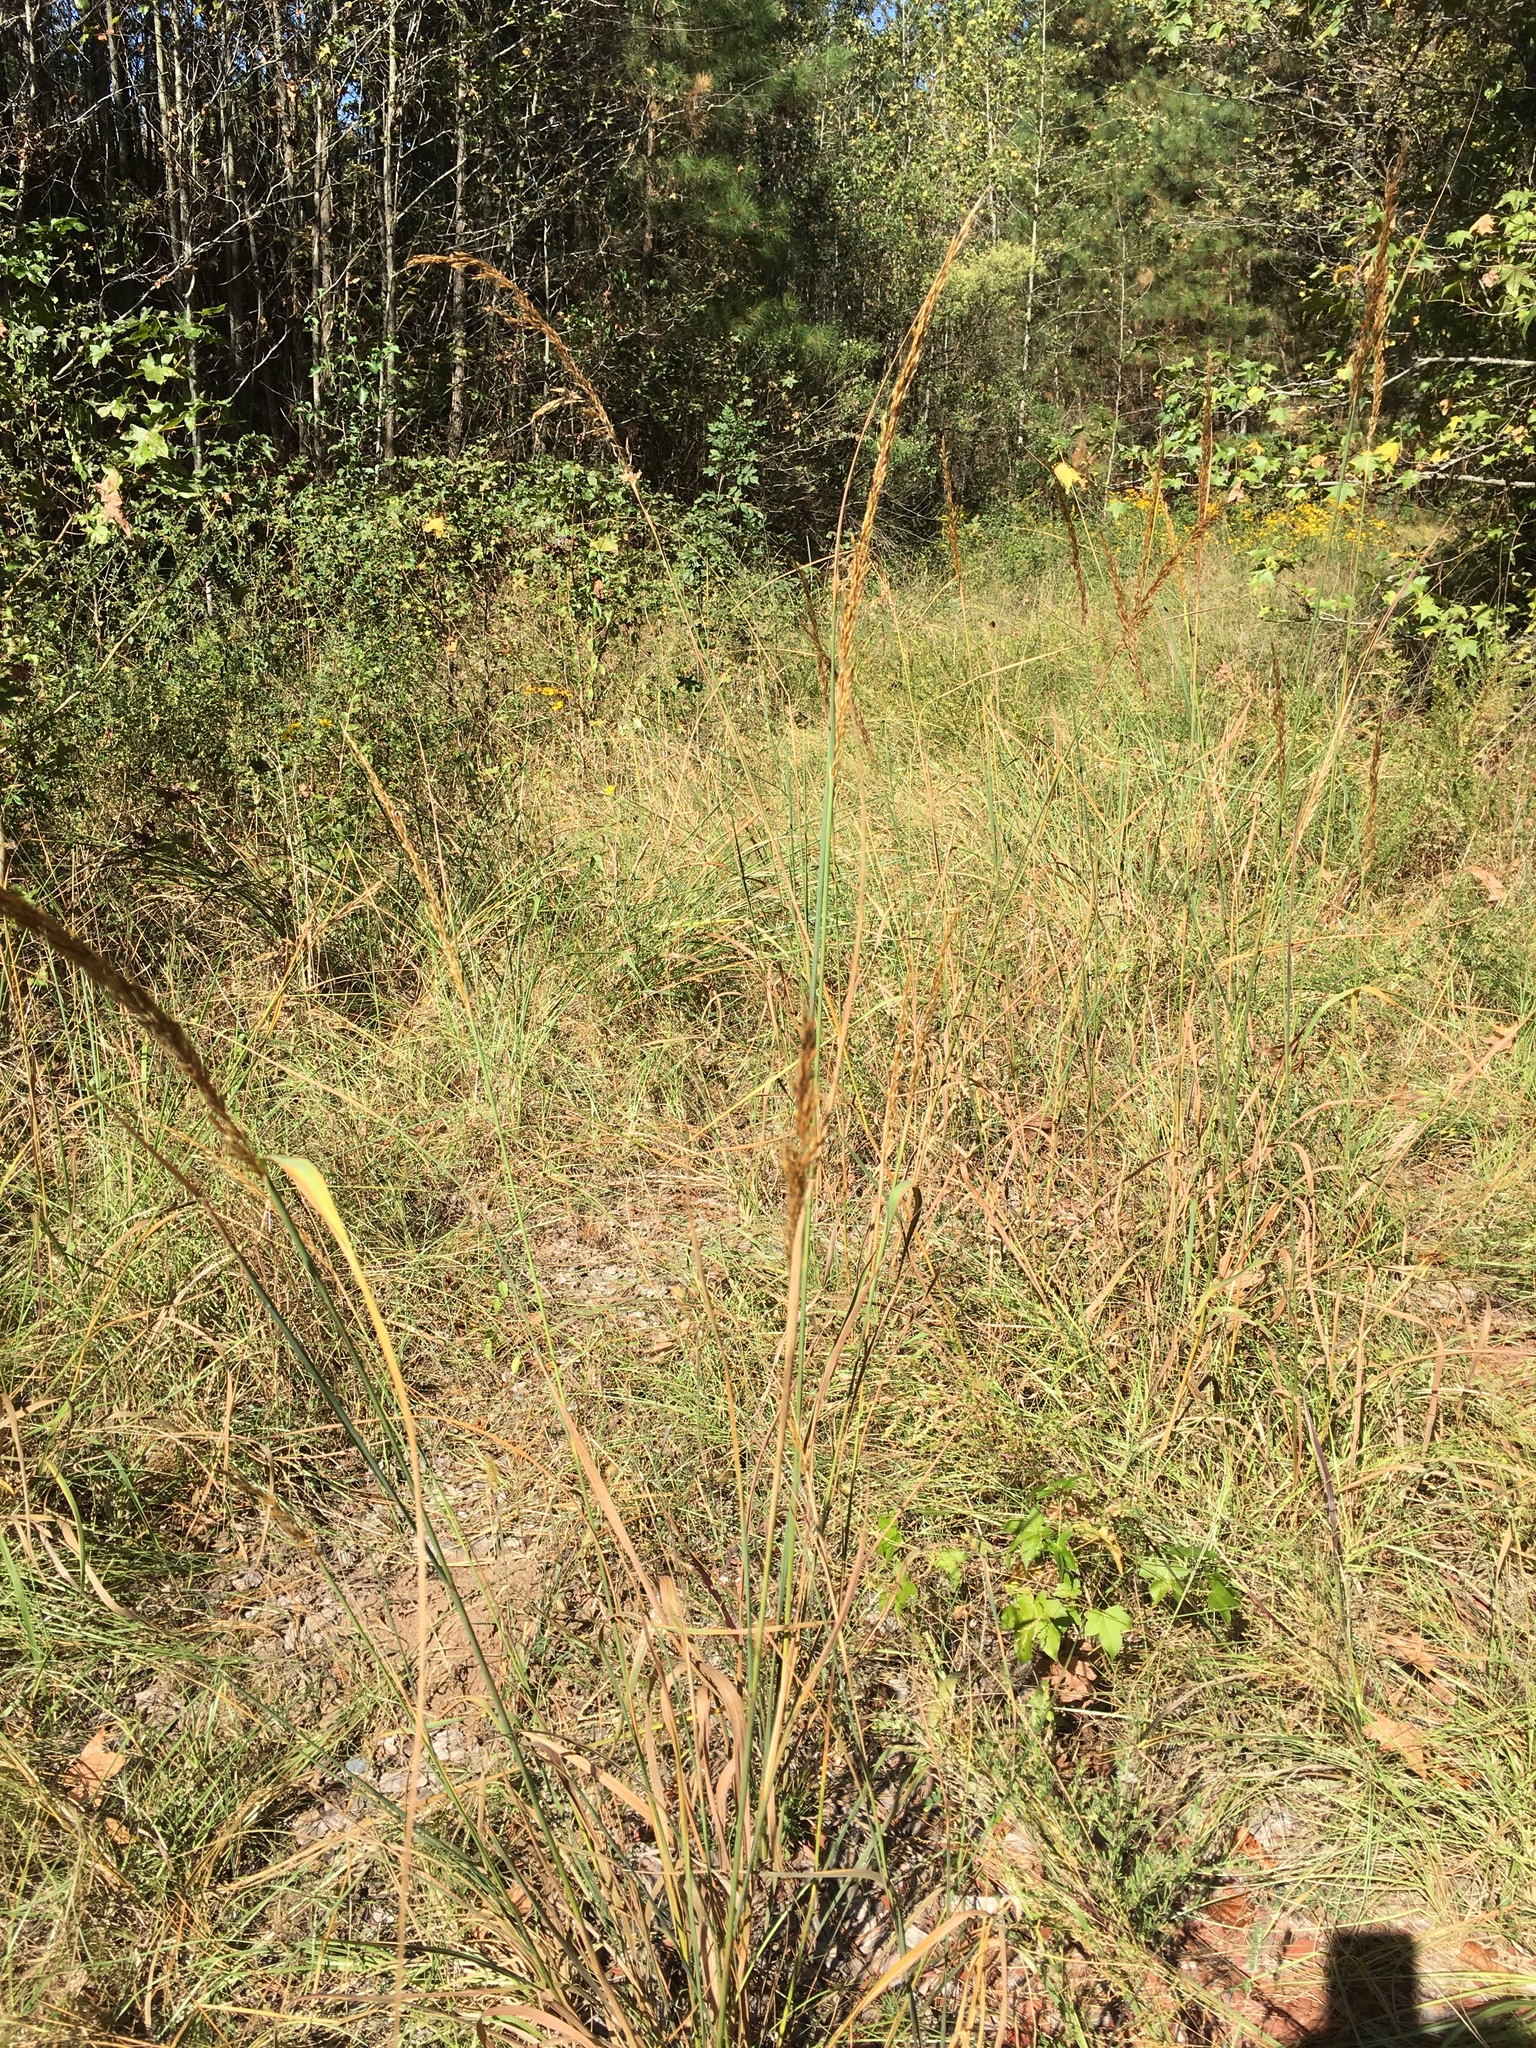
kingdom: Plantae
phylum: Tracheophyta
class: Liliopsida
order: Poales
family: Poaceae
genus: Sorghastrum
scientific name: Sorghastrum nutans
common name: Indian grass
